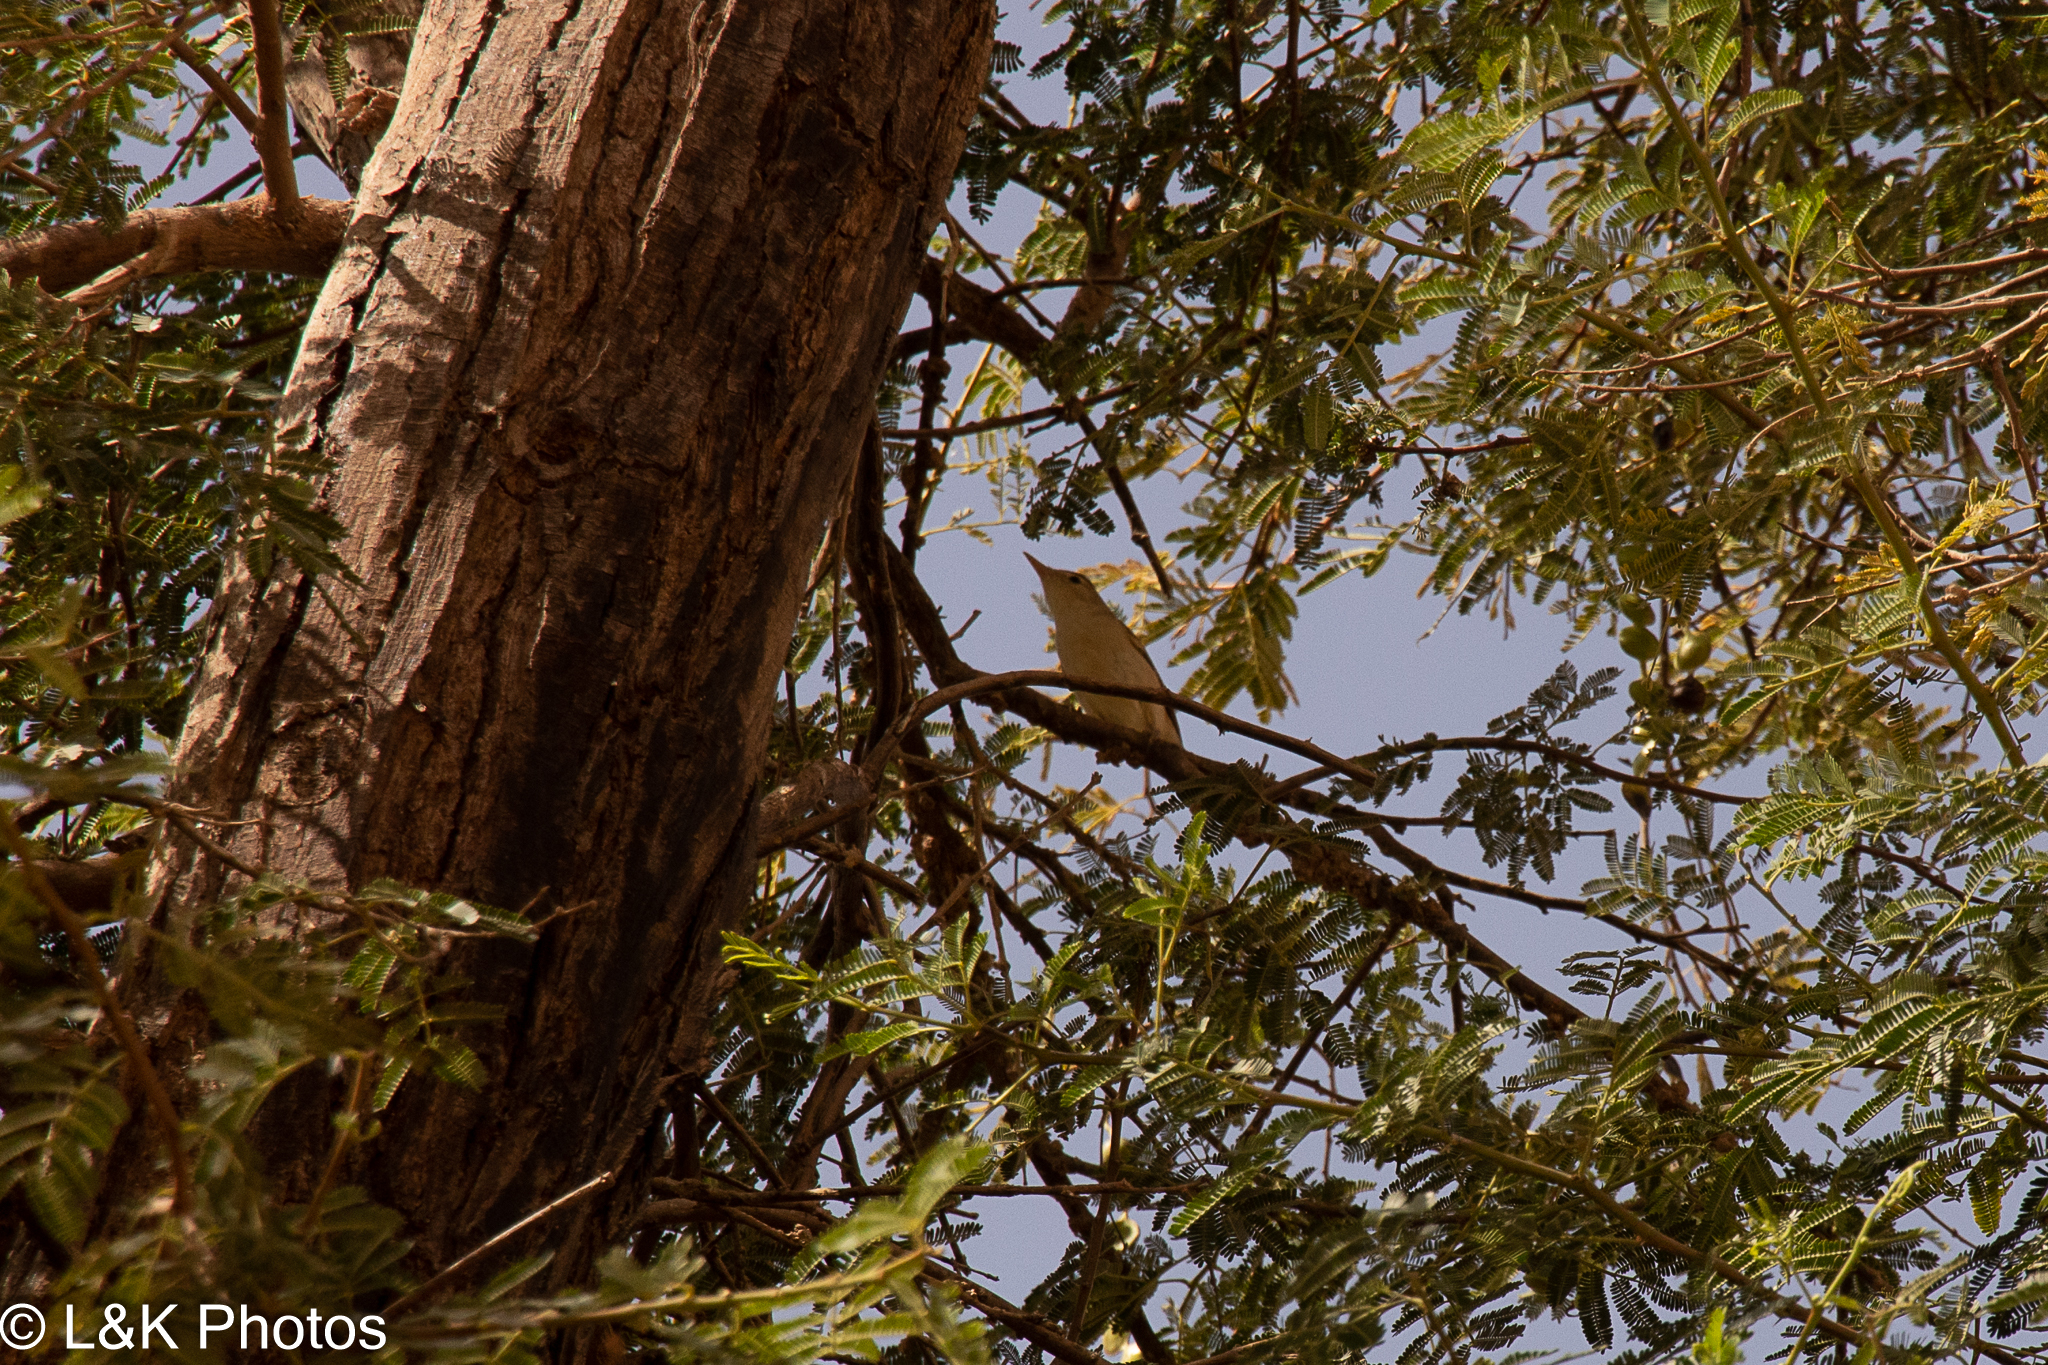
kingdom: Animalia
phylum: Chordata
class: Aves
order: Passeriformes
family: Acrocephalidae
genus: Iduna
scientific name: Iduna pallida
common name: Eastern olivaceous warbler
